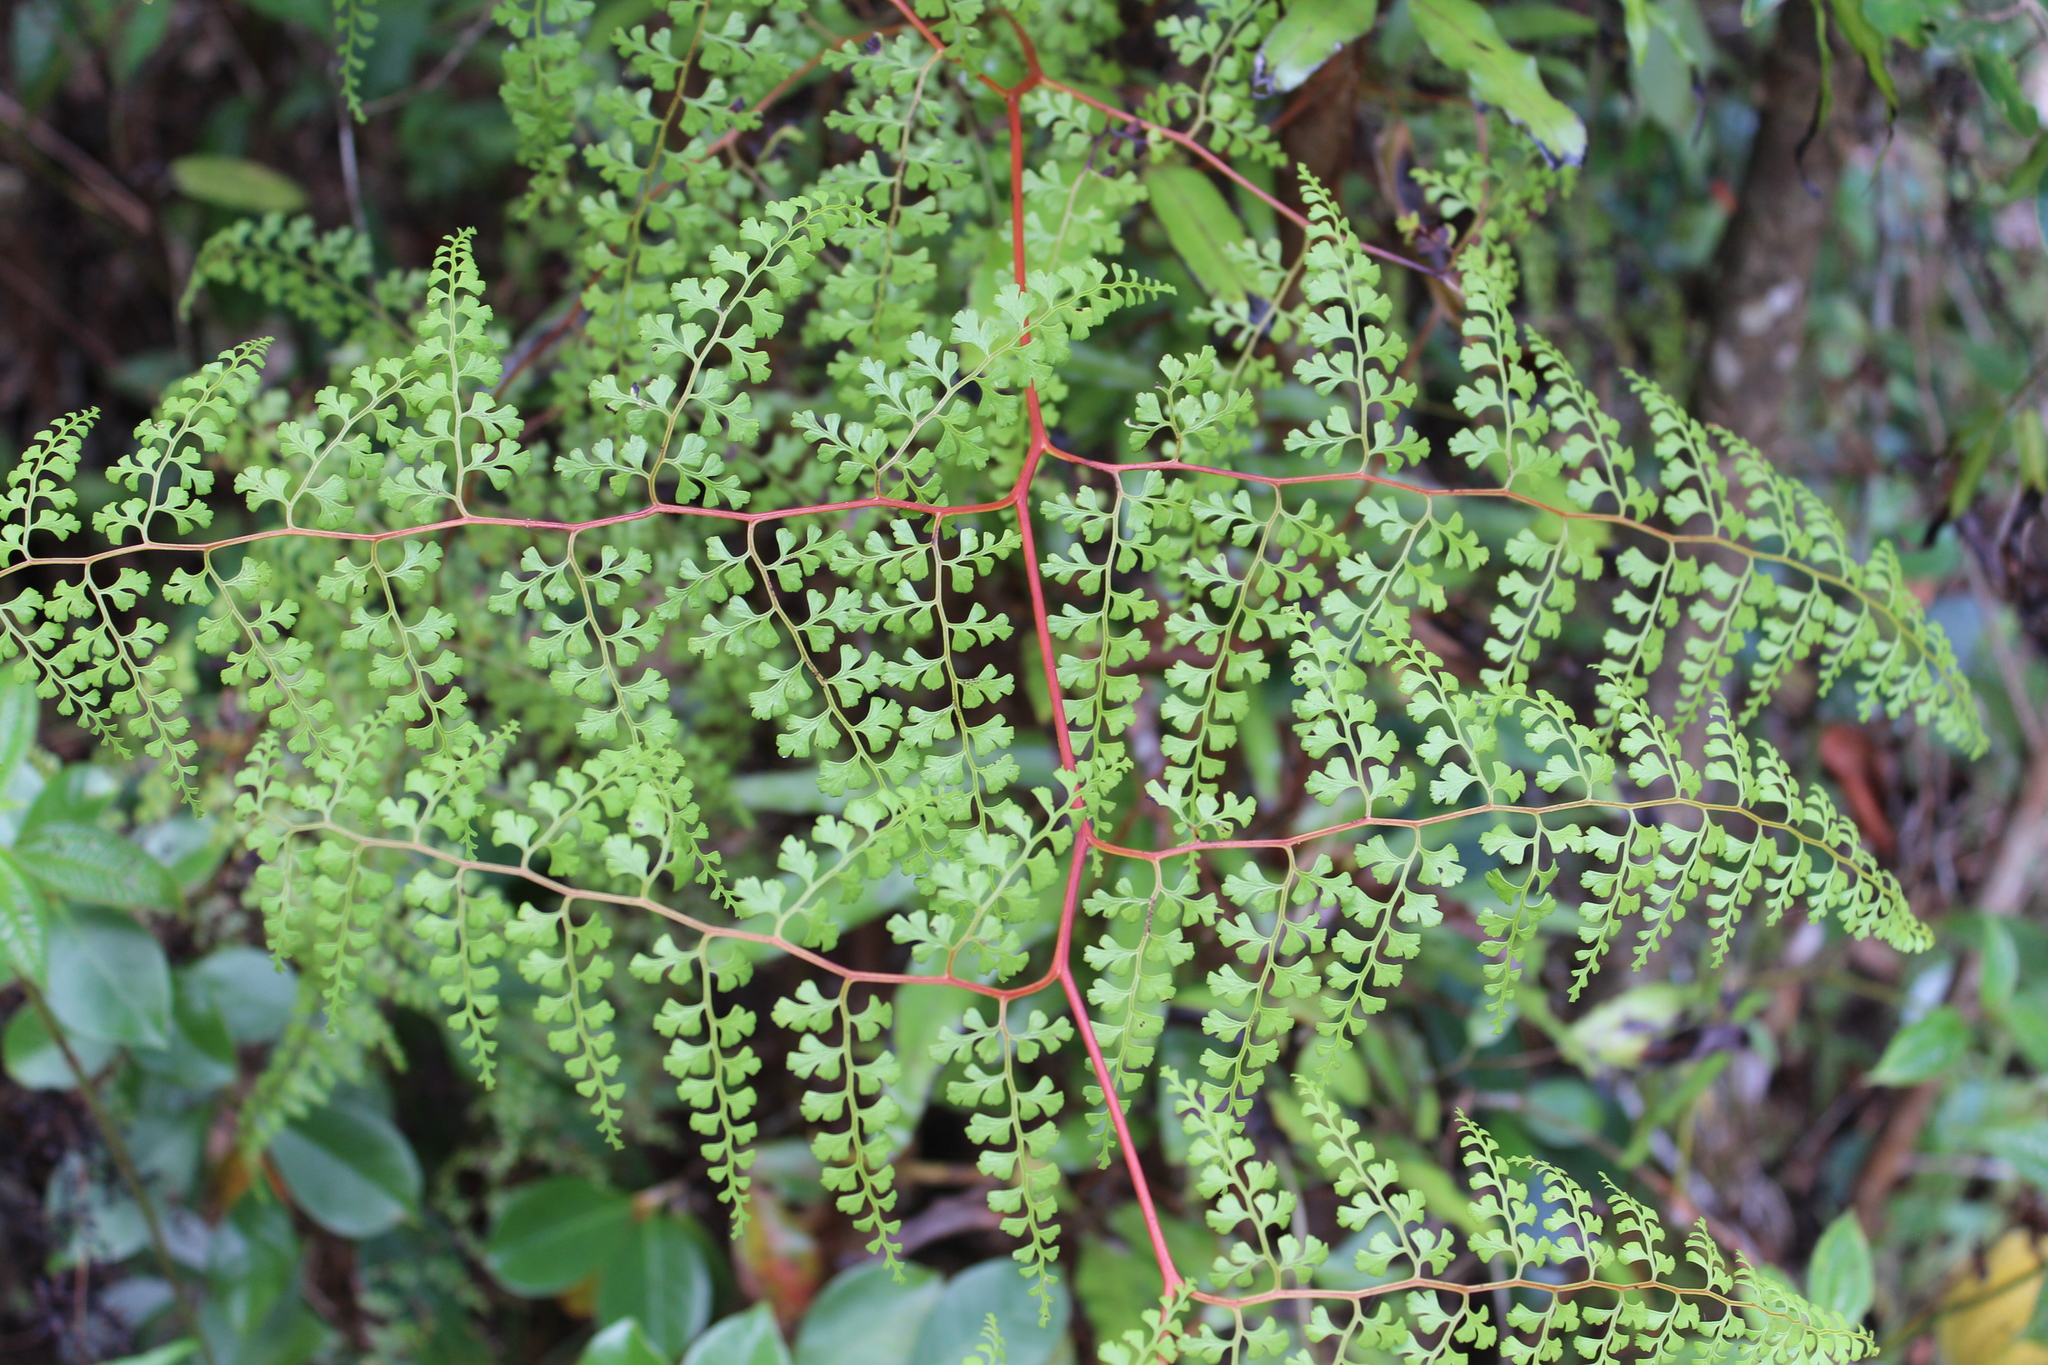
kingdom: Plantae
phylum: Tracheophyta
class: Polypodiopsida
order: Polypodiales
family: Lindsaeaceae
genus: Odontosoria
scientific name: Odontosoria melleri
